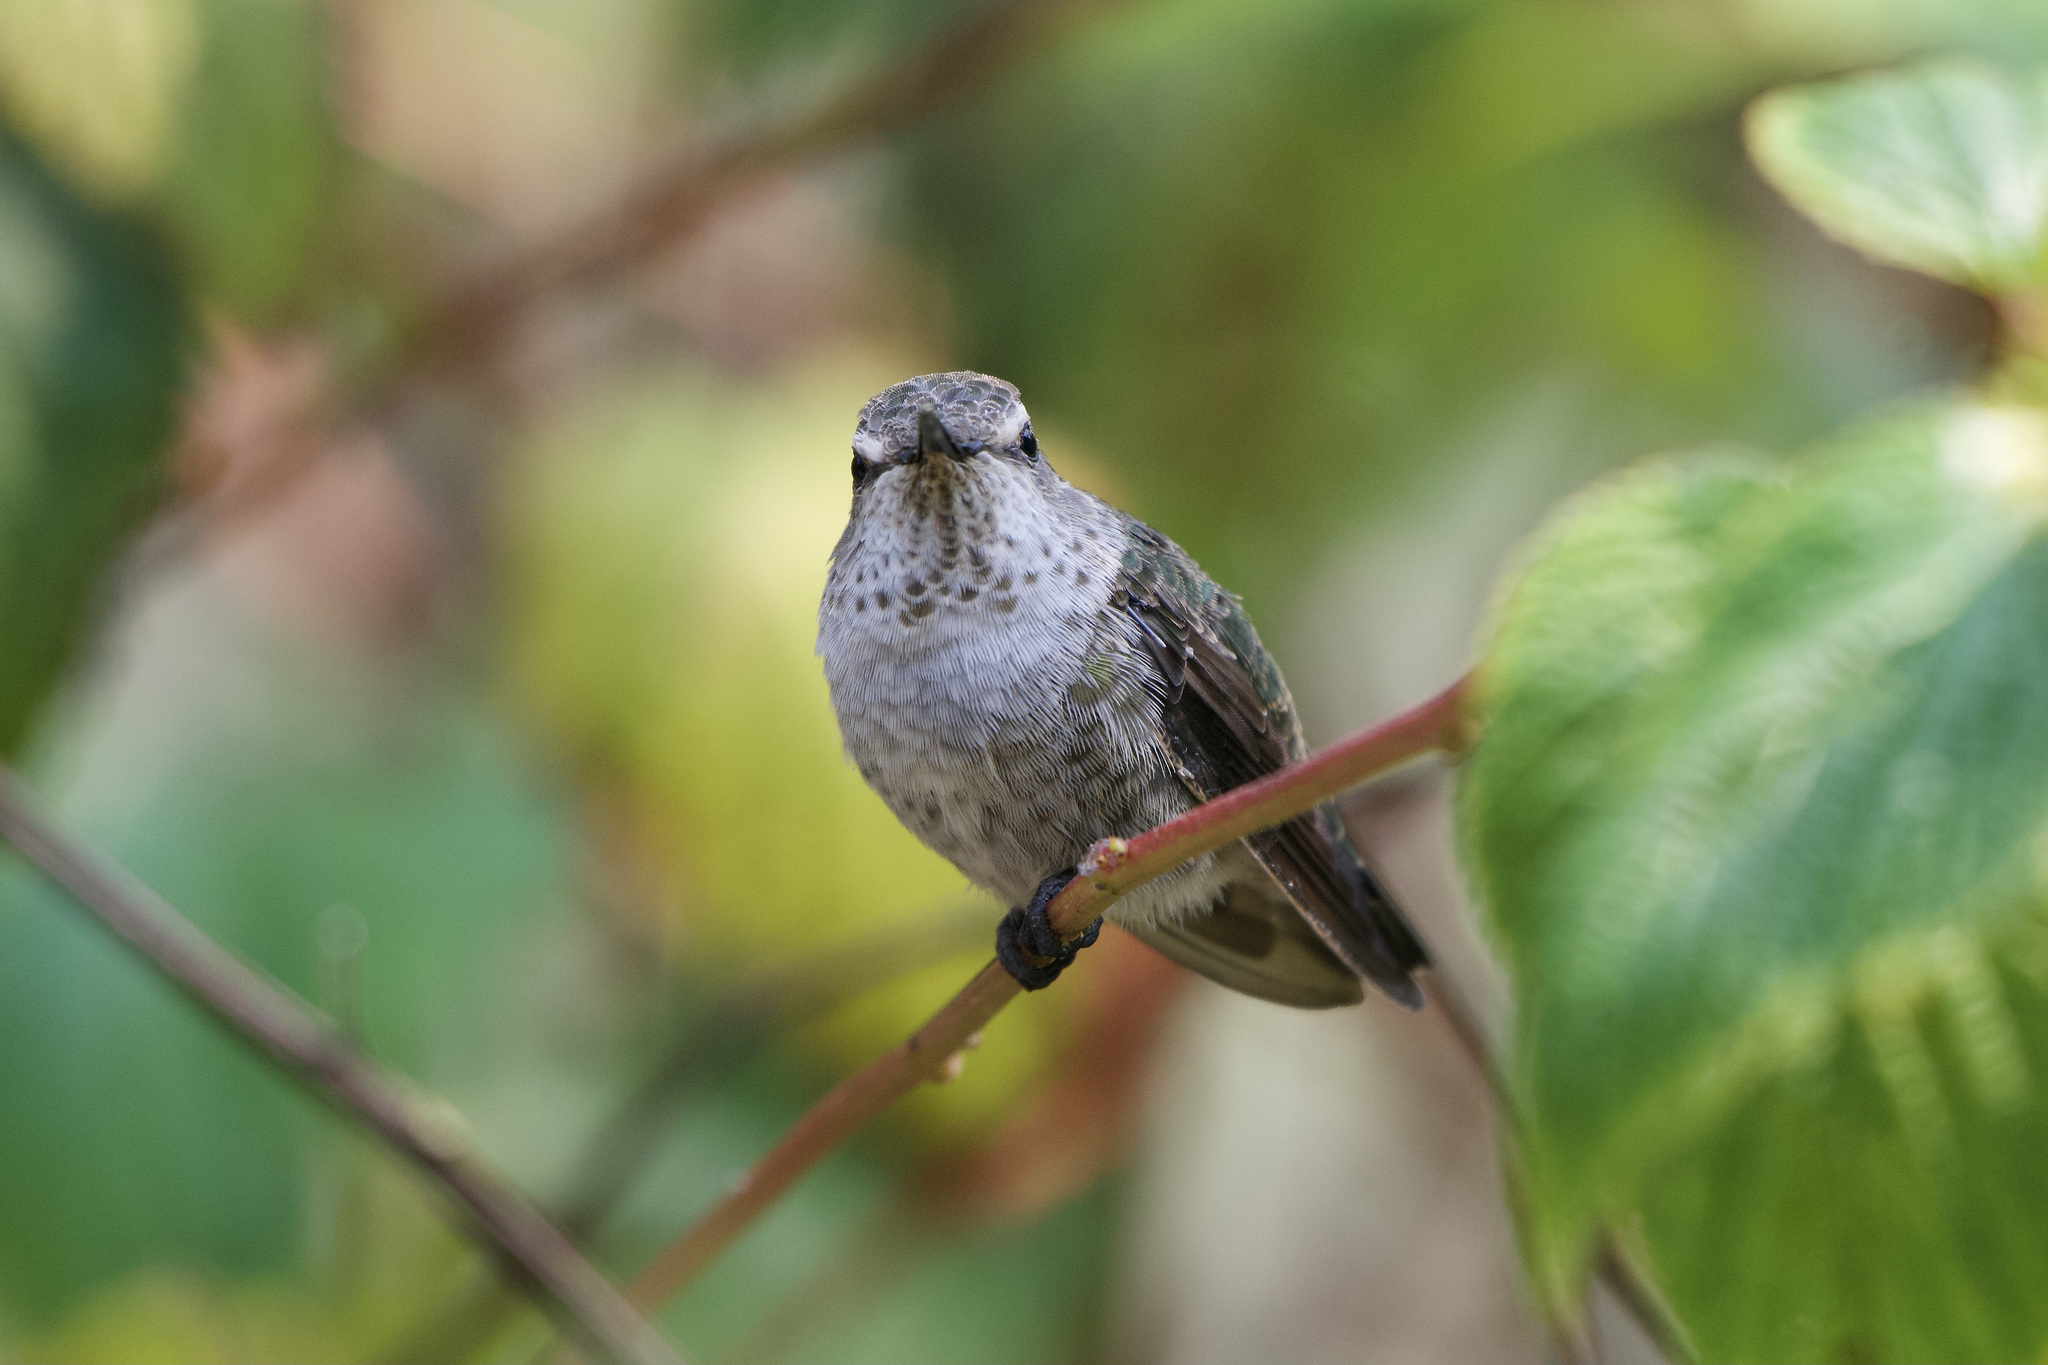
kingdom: Animalia
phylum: Chordata
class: Aves
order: Apodiformes
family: Trochilidae
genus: Calypte
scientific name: Calypte anna
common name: Anna's hummingbird
